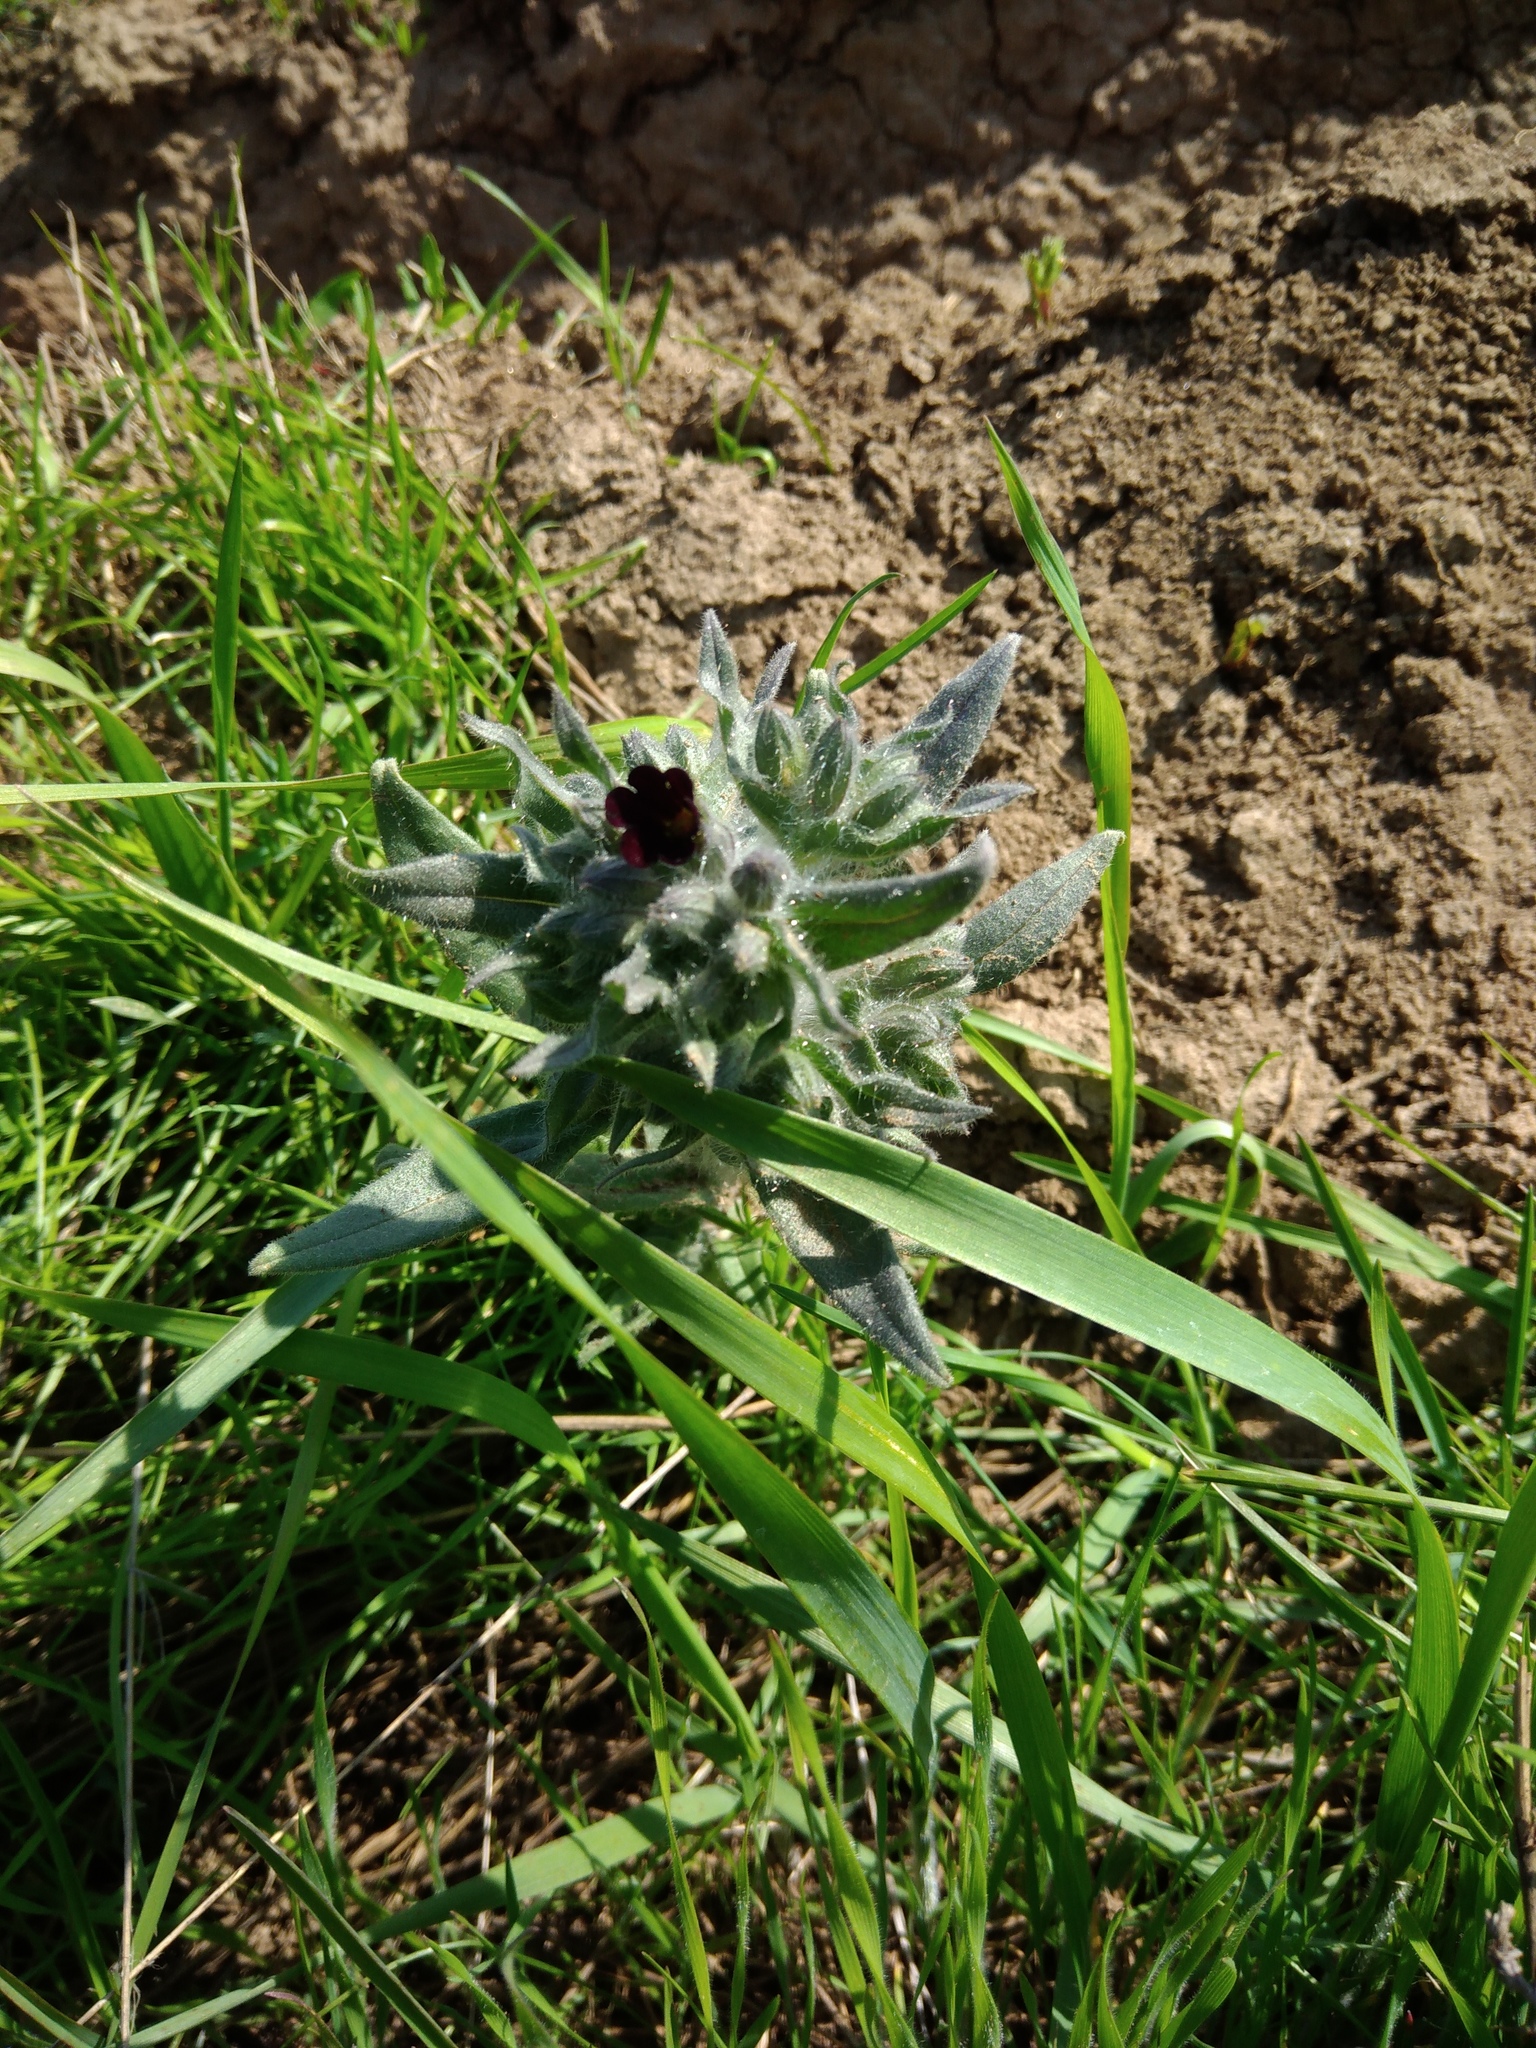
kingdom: Plantae
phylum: Tracheophyta
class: Magnoliopsida
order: Boraginales
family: Boraginaceae
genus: Nonea
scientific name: Nonea pulla
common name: Brown nonea
